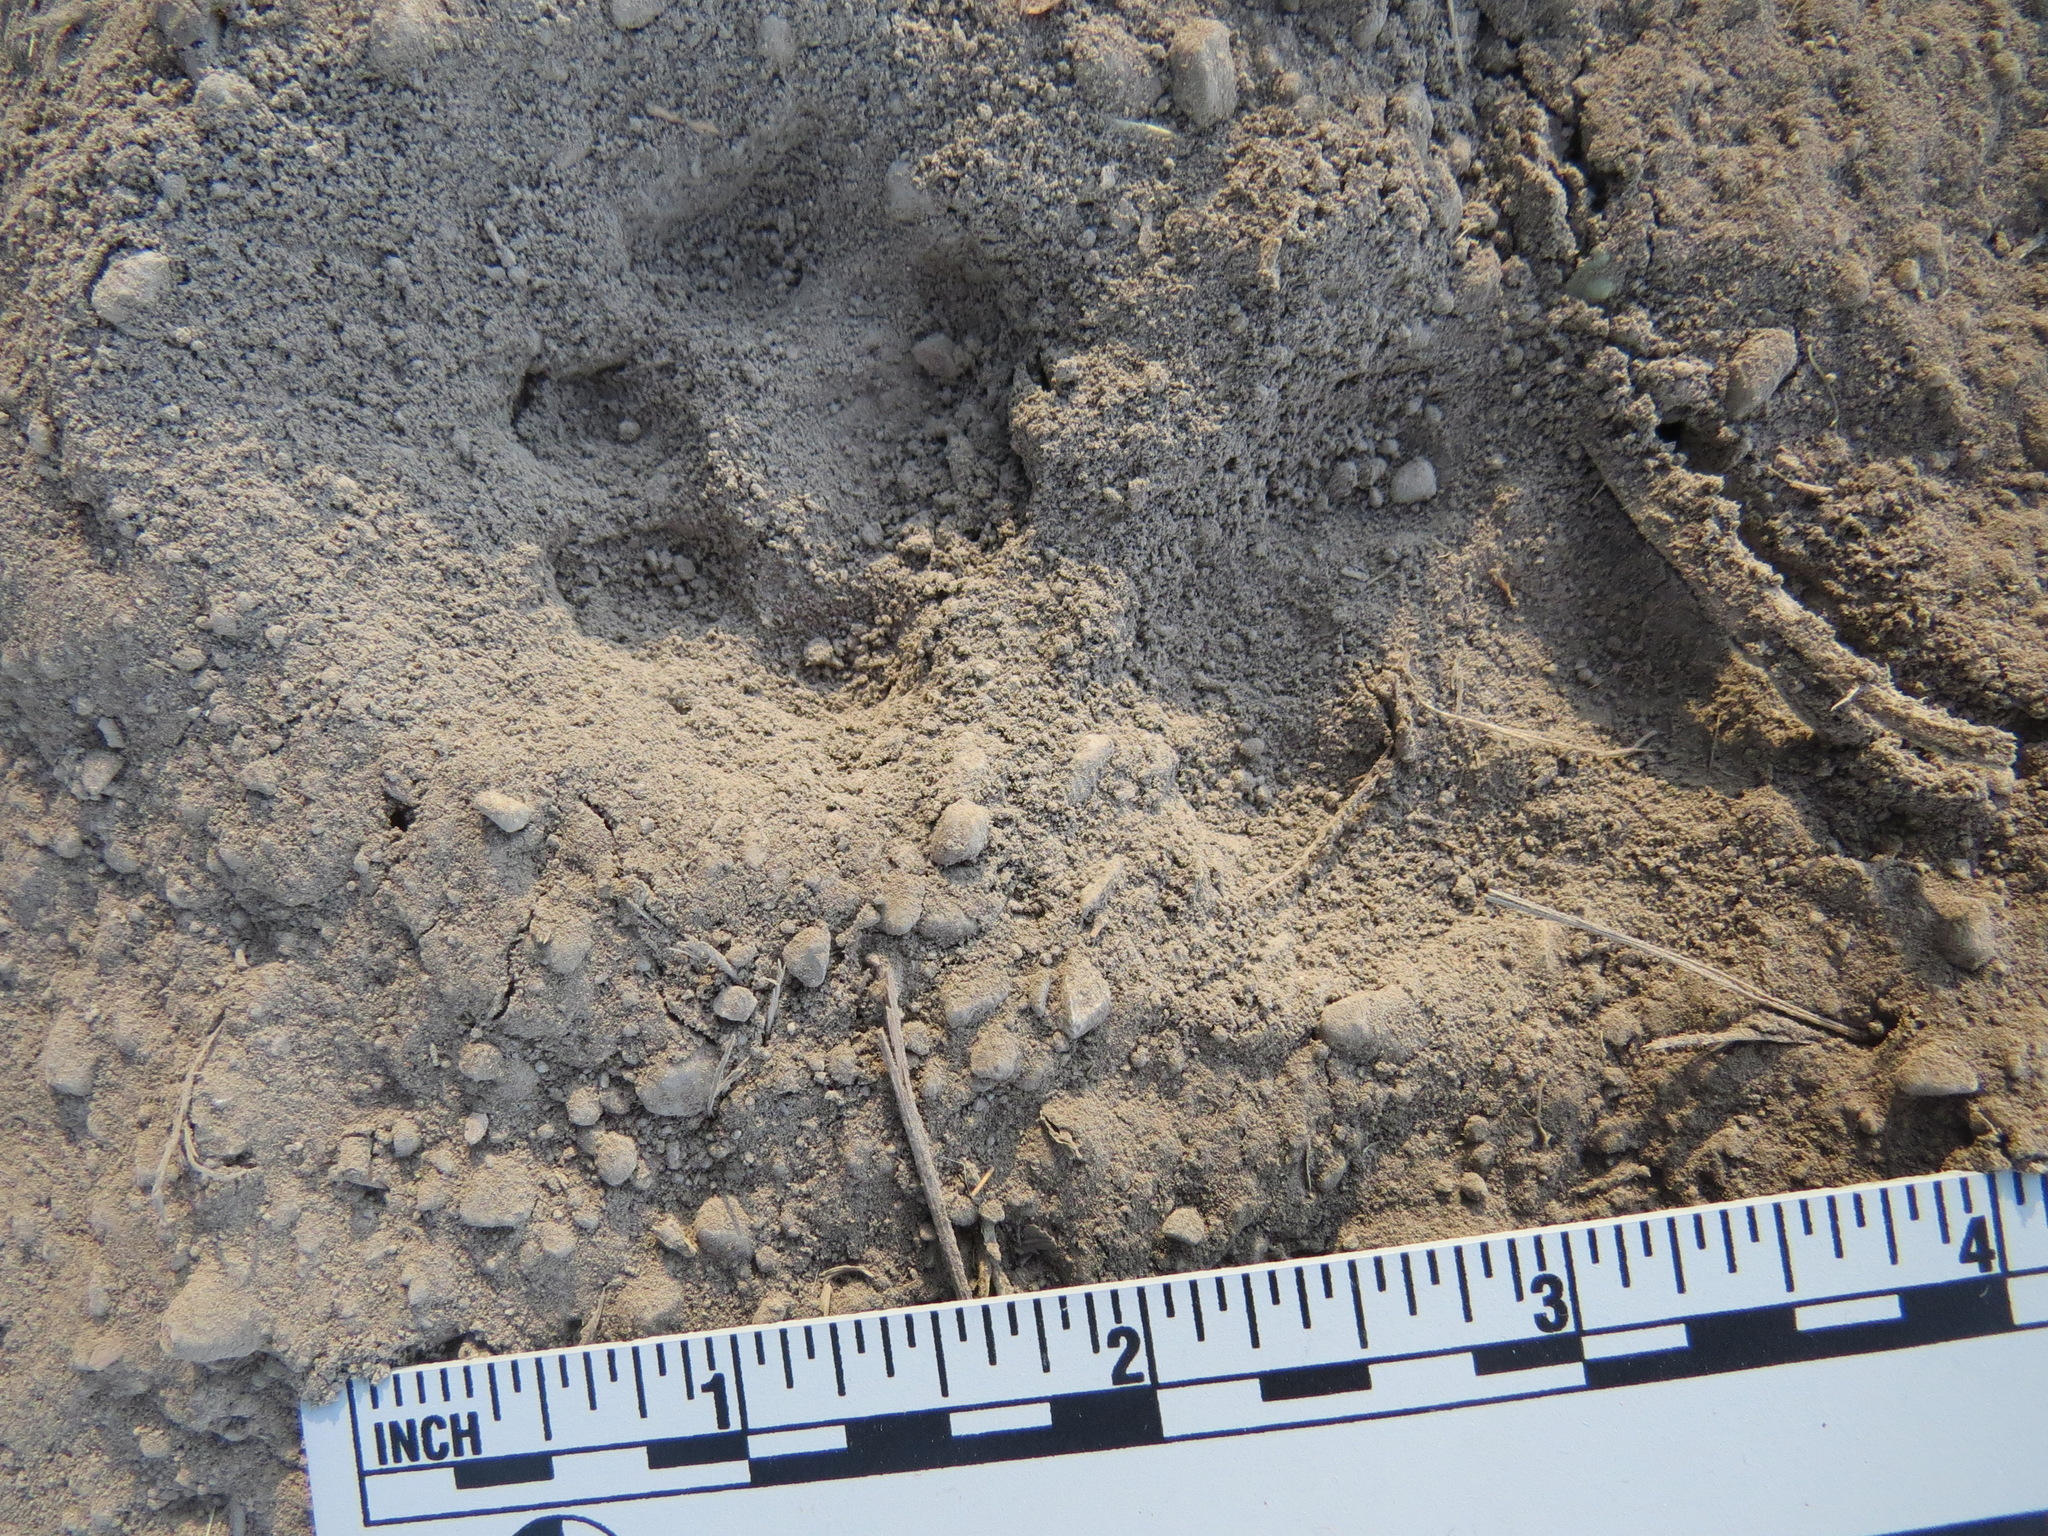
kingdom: Animalia
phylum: Chordata
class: Mammalia
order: Carnivora
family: Canidae
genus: Urocyon
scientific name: Urocyon cinereoargenteus
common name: Gray fox
